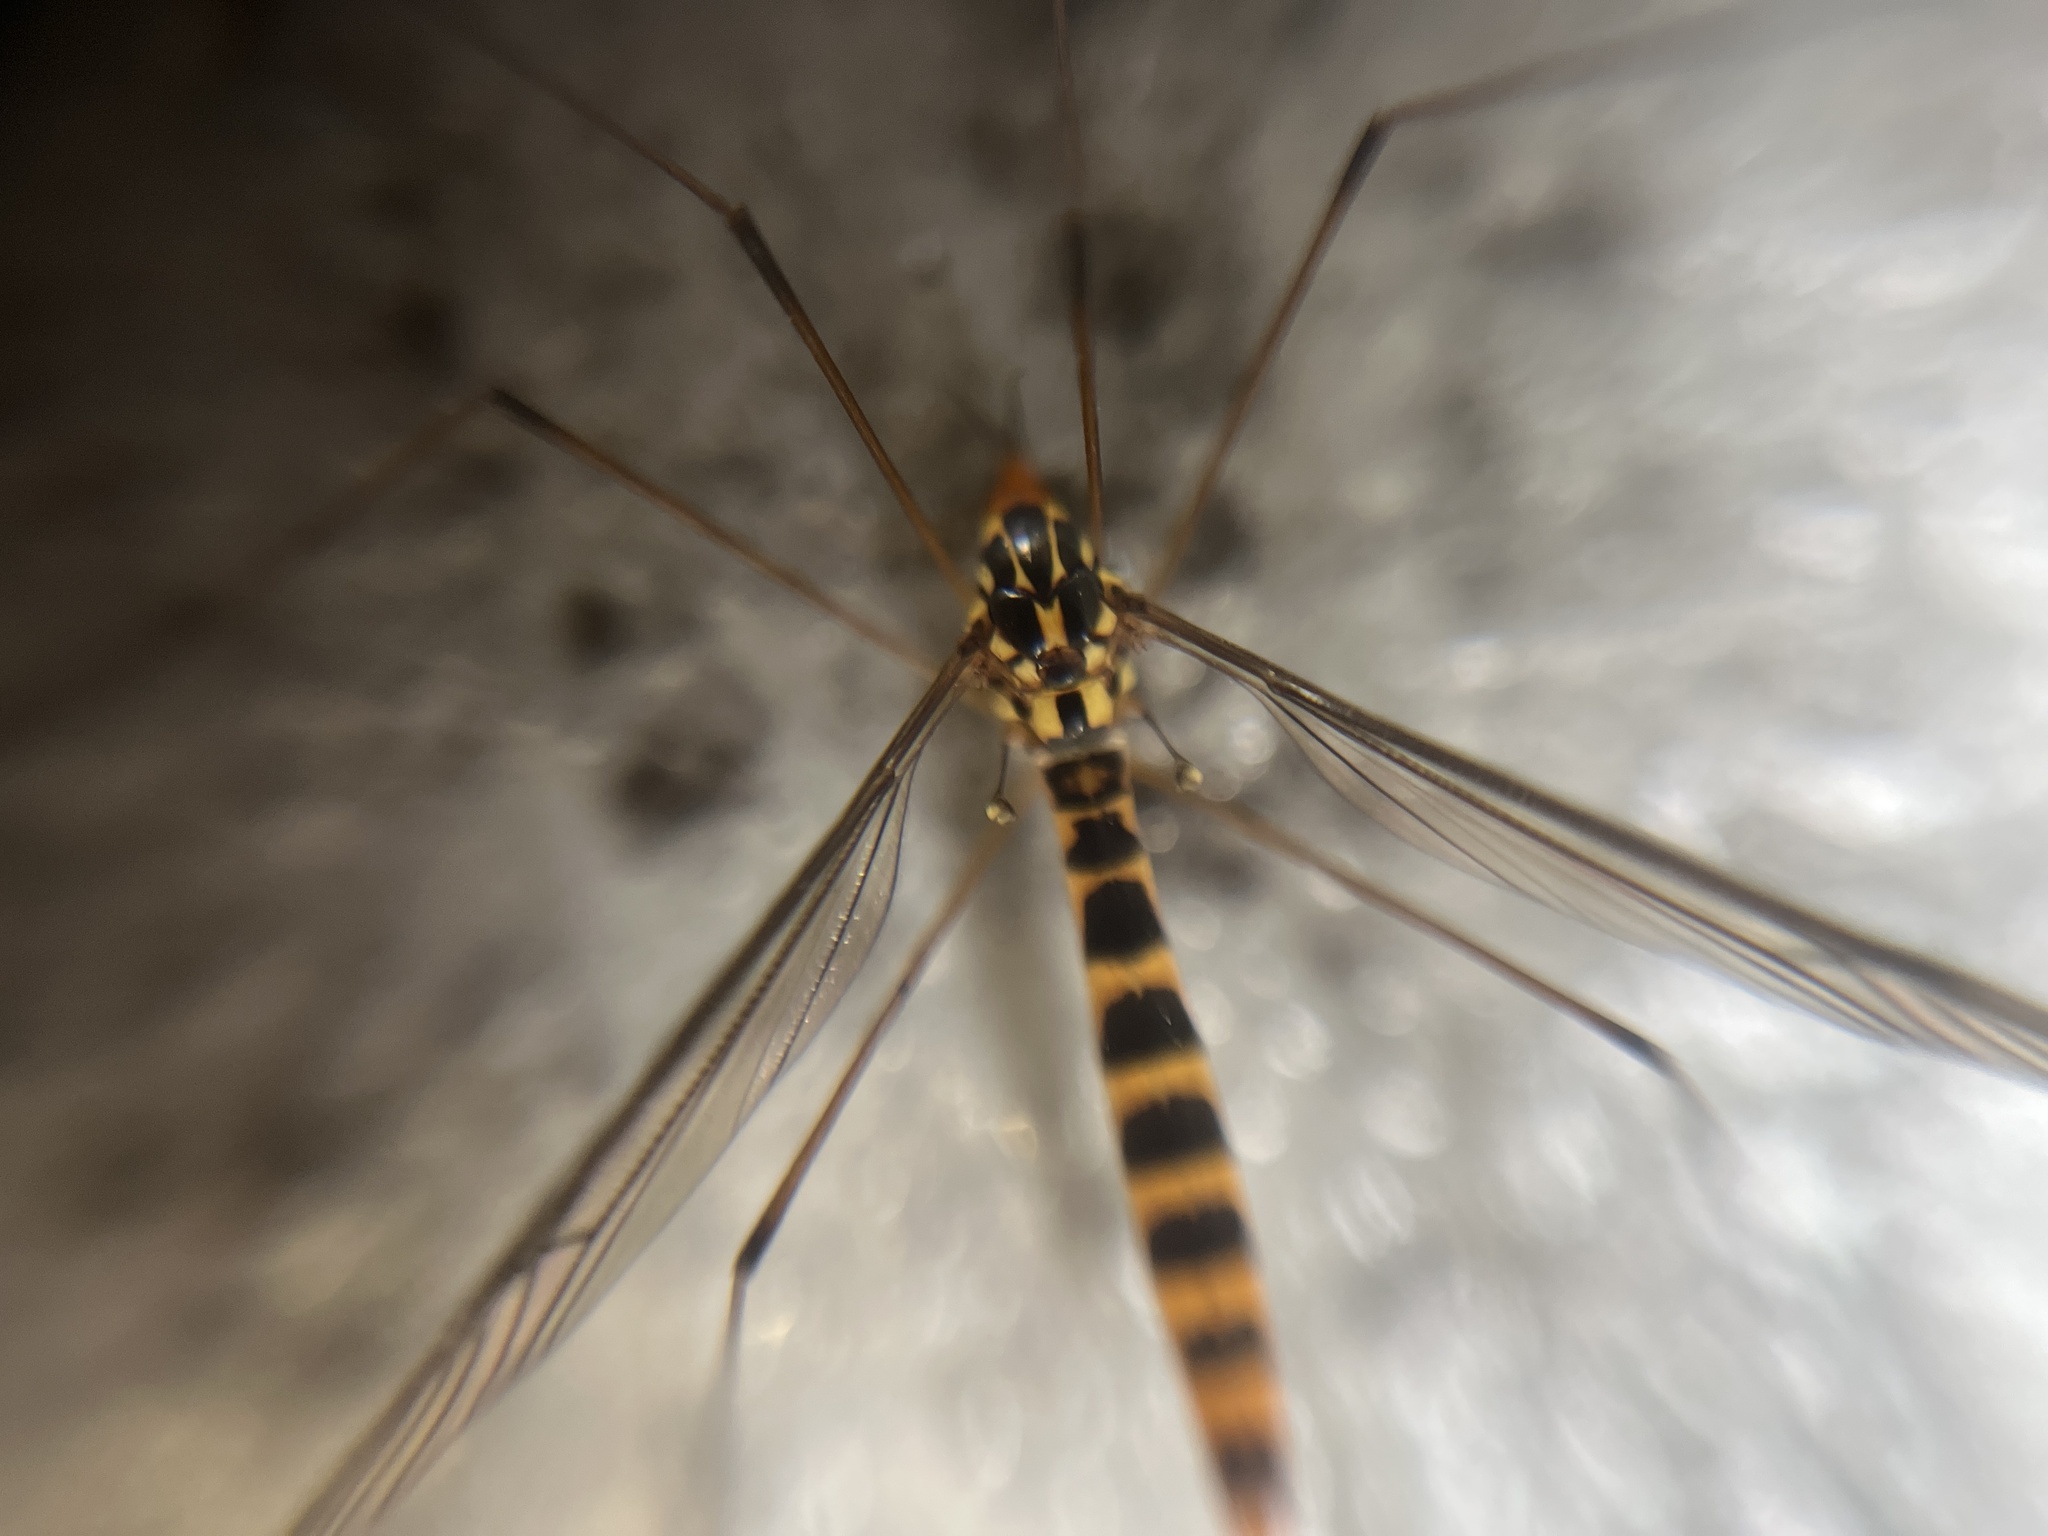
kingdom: Animalia
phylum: Arthropoda
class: Insecta
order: Diptera
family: Tipulidae
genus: Nephrotoma
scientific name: Nephrotoma flavipalpis
